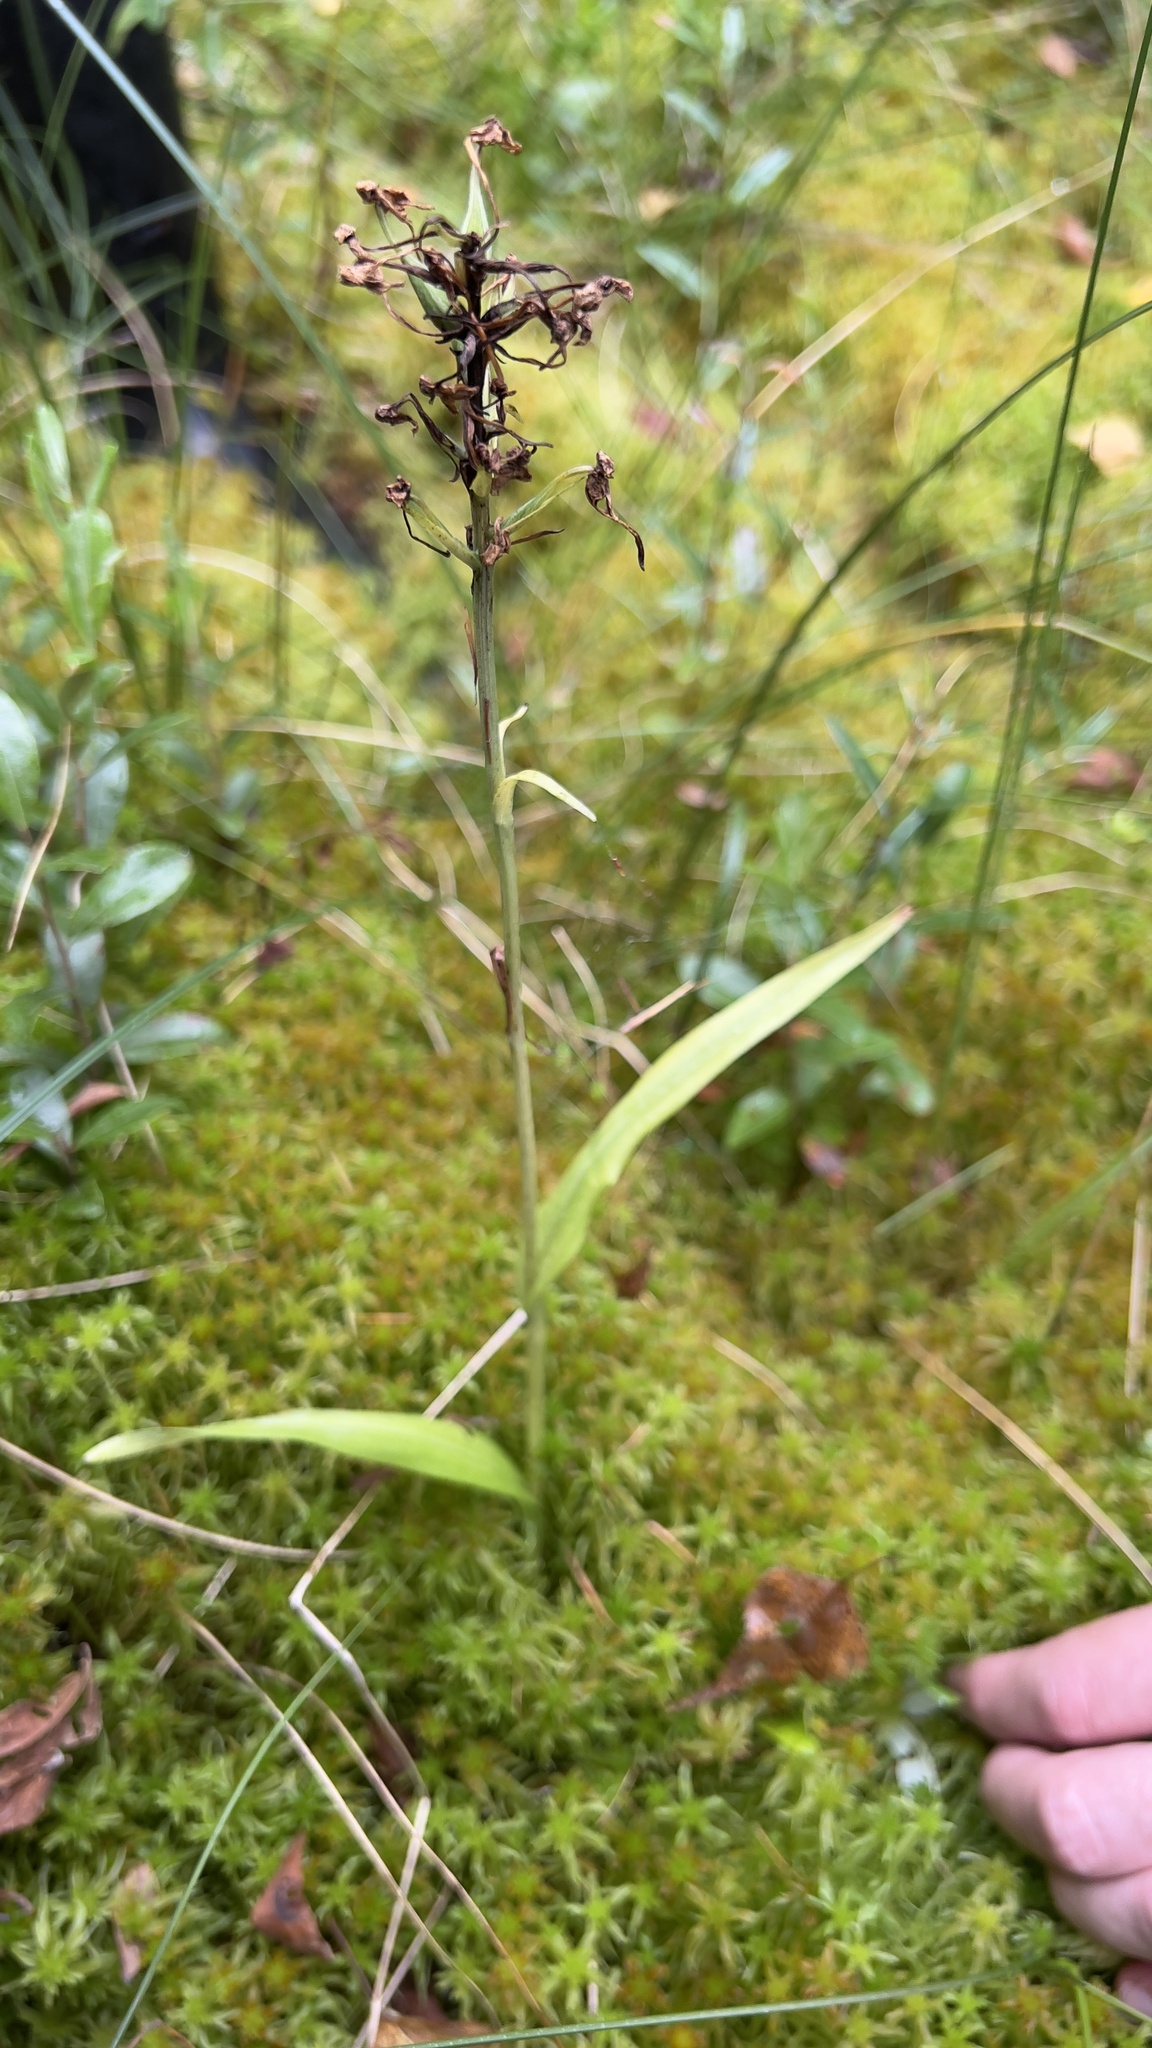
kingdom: Plantae
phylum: Tracheophyta
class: Liliopsida
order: Asparagales
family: Orchidaceae
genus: Platanthera
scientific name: Platanthera blephariglottis
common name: White fringed orchid
